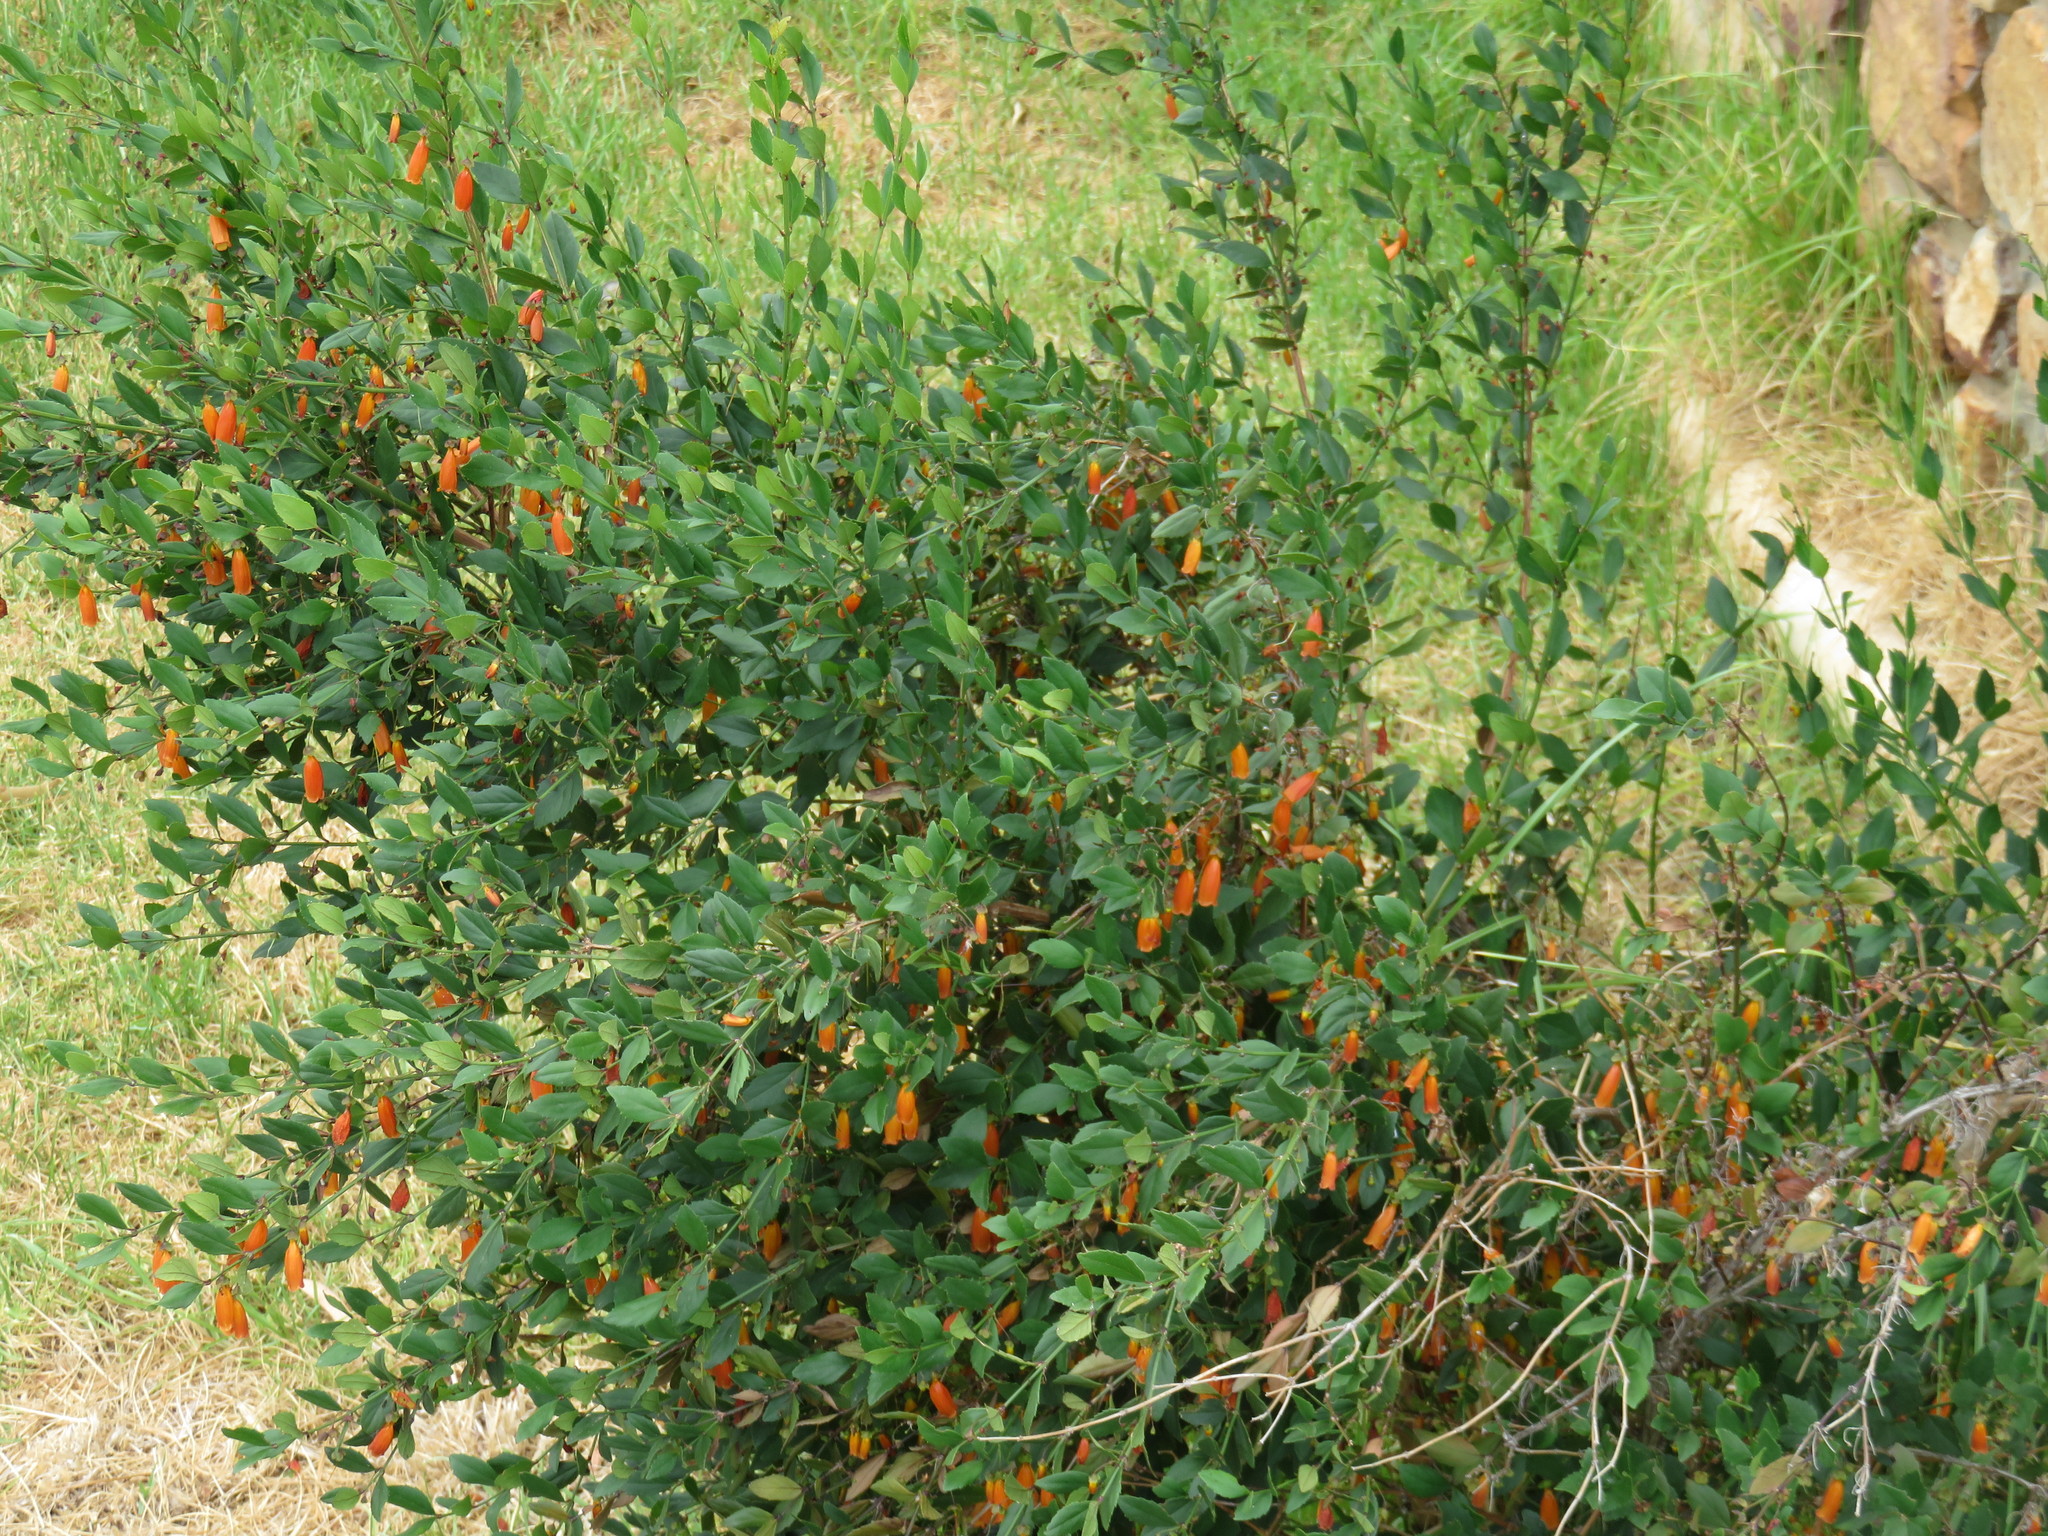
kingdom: Plantae
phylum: Tracheophyta
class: Magnoliopsida
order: Lamiales
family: Stilbaceae
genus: Halleria
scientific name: Halleria elliptica
